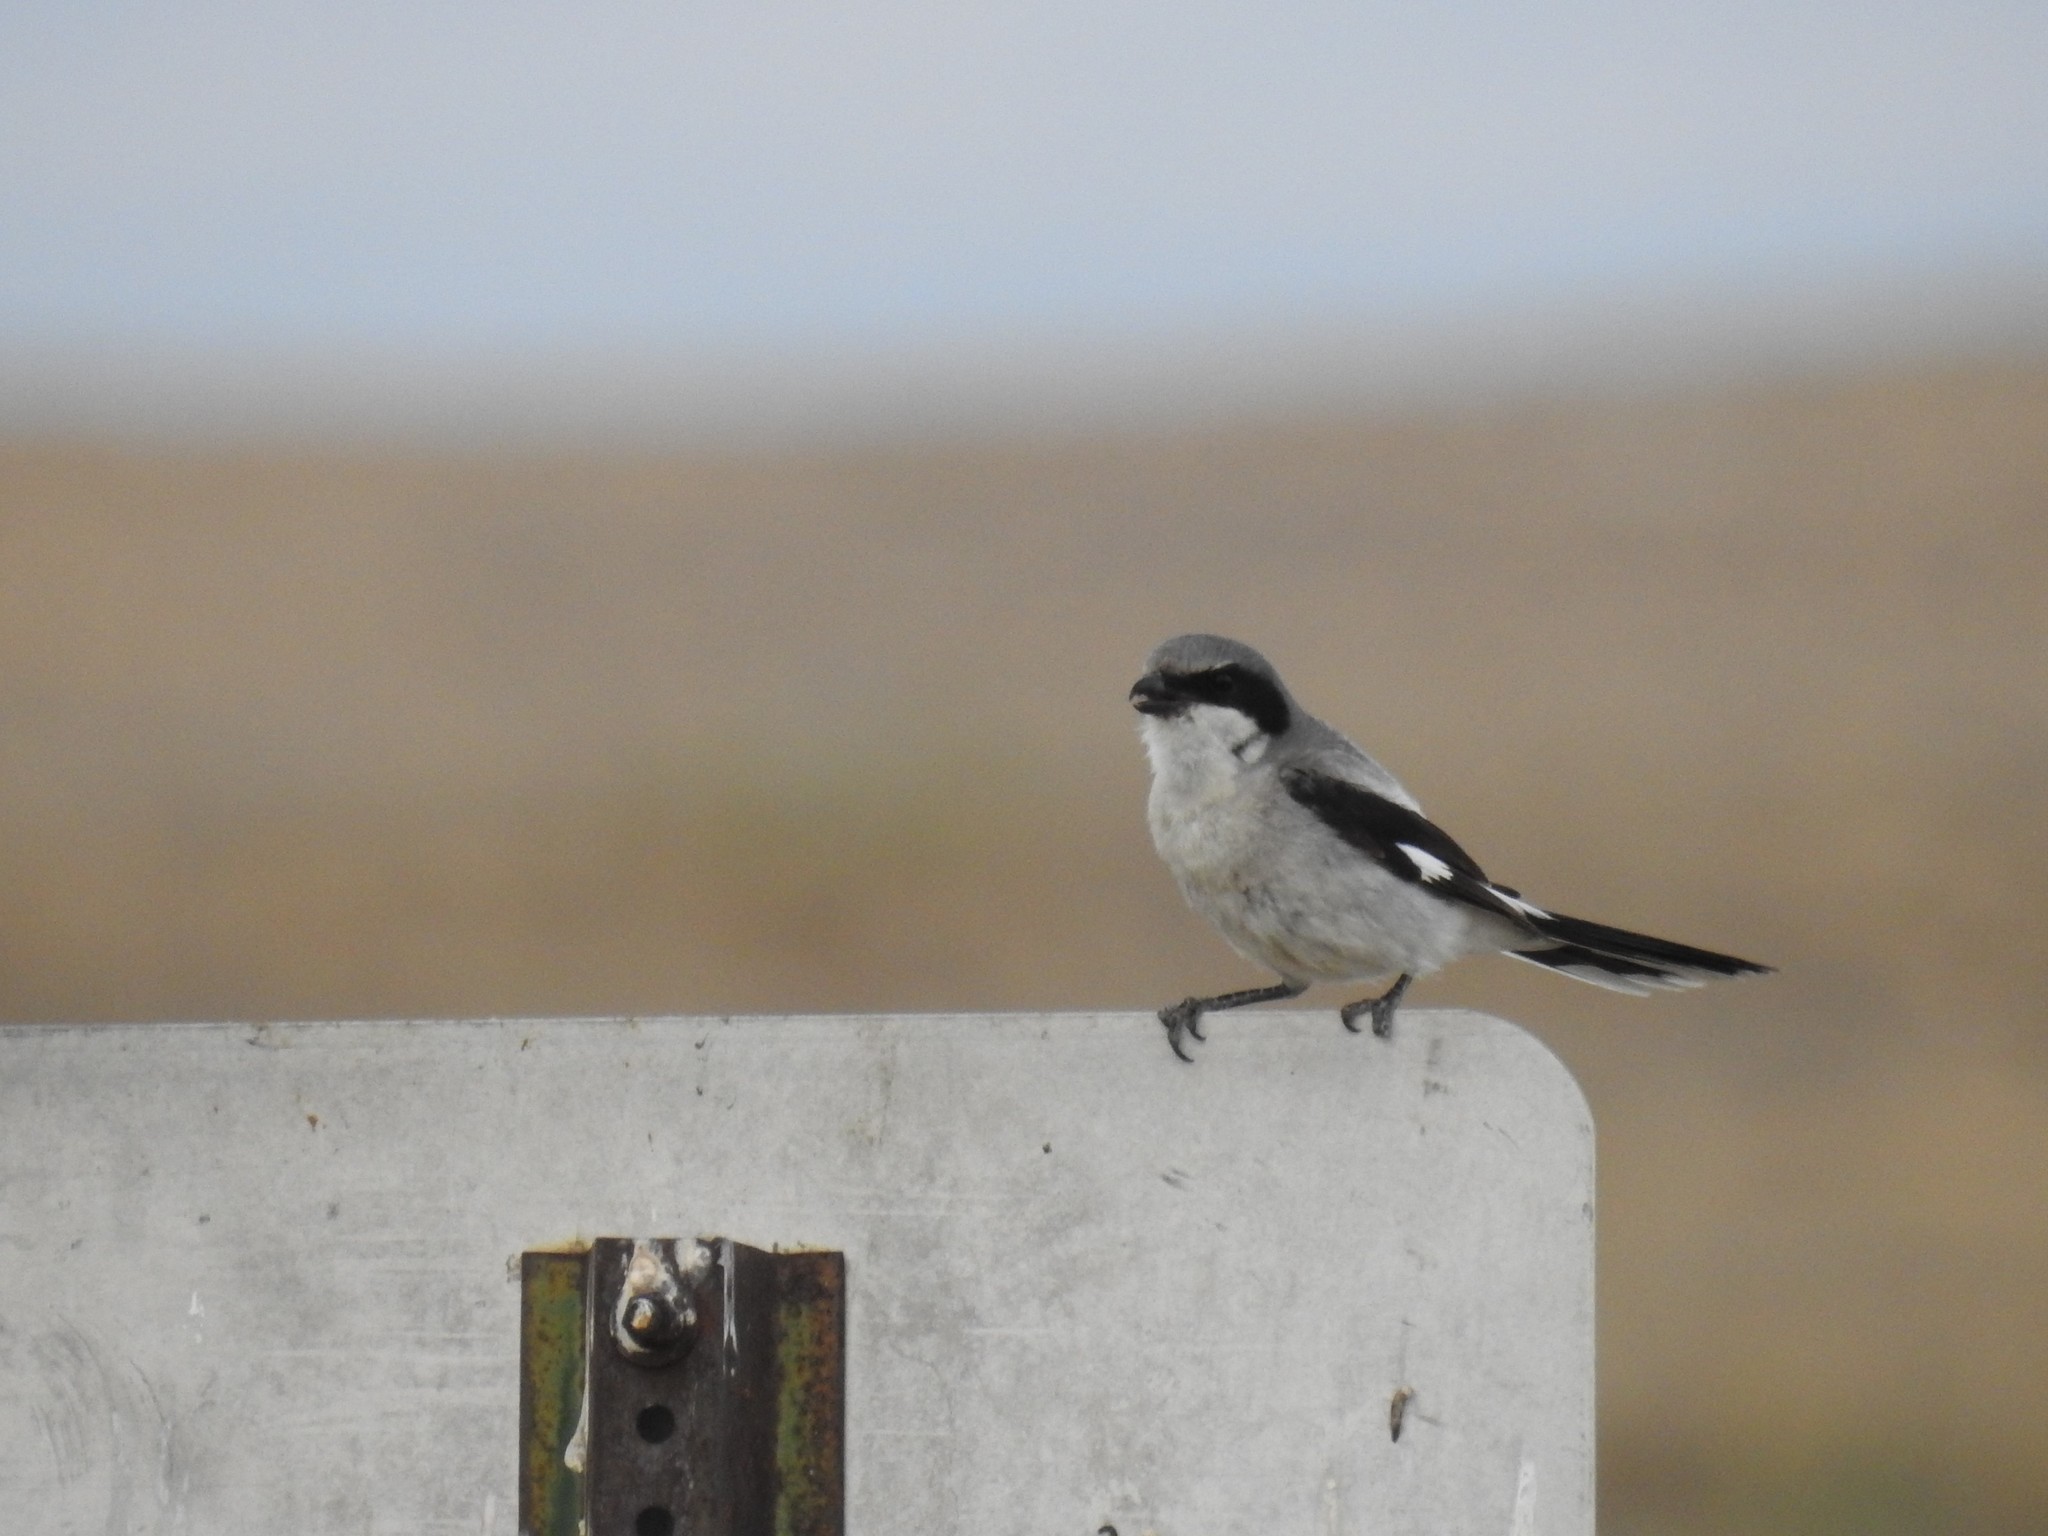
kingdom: Animalia
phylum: Chordata
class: Aves
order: Passeriformes
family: Laniidae
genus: Lanius
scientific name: Lanius ludovicianus
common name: Loggerhead shrike
